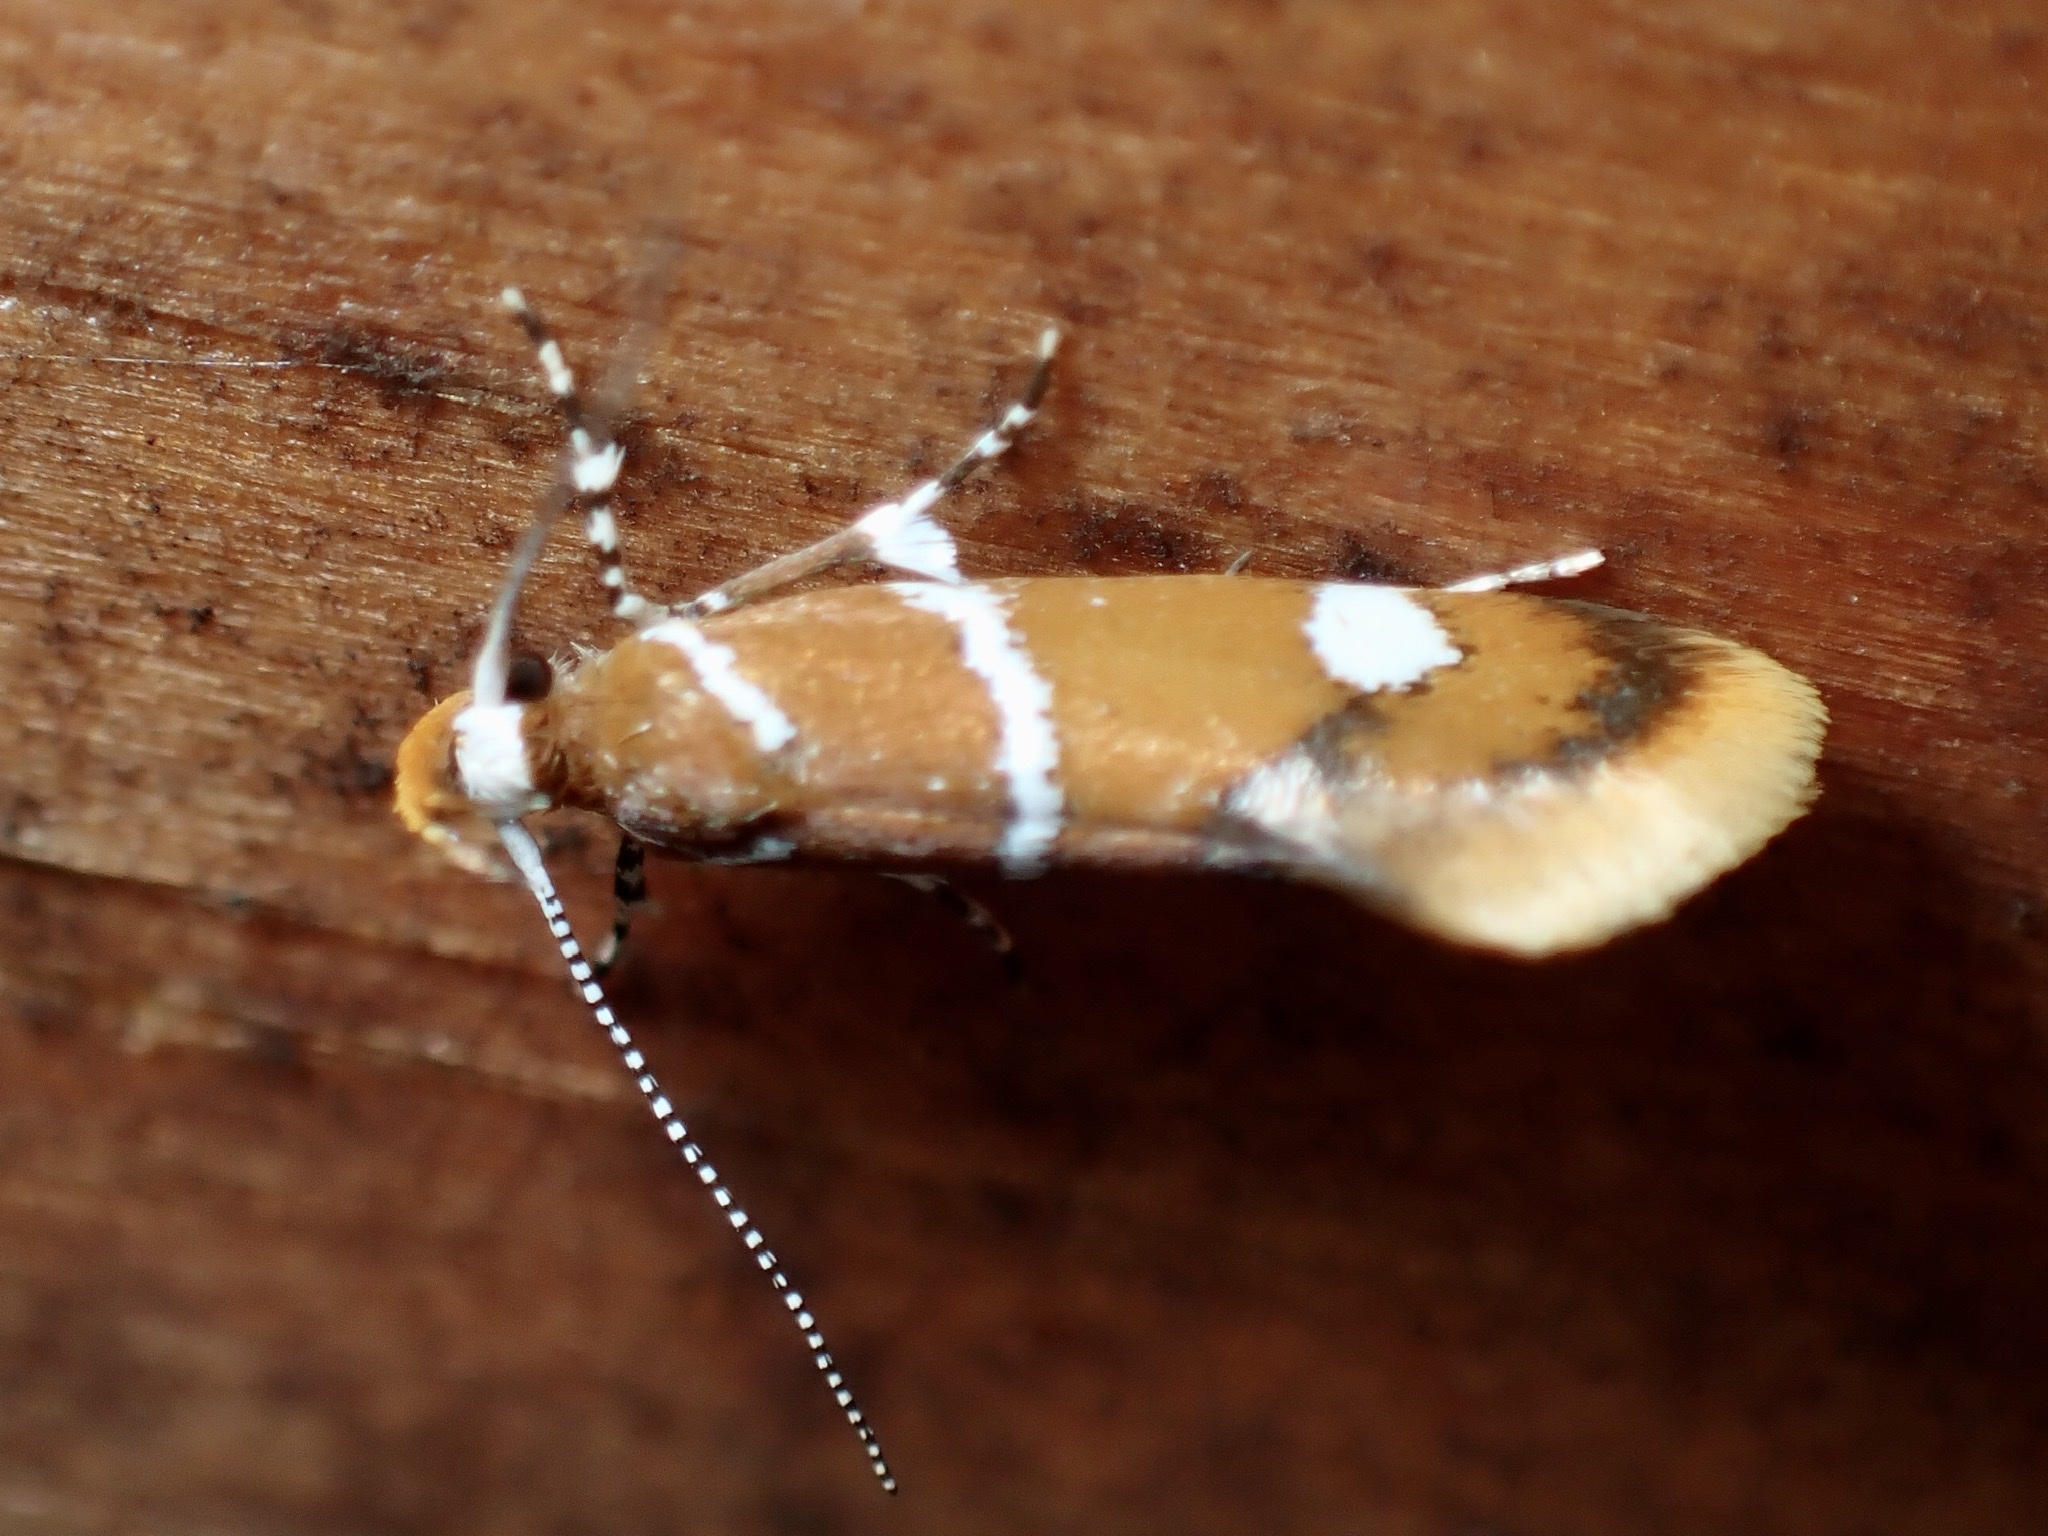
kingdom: Animalia
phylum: Arthropoda
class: Insecta
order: Lepidoptera
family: Oecophoridae
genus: Promalactis
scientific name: Promalactis suzukiella
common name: Moth
